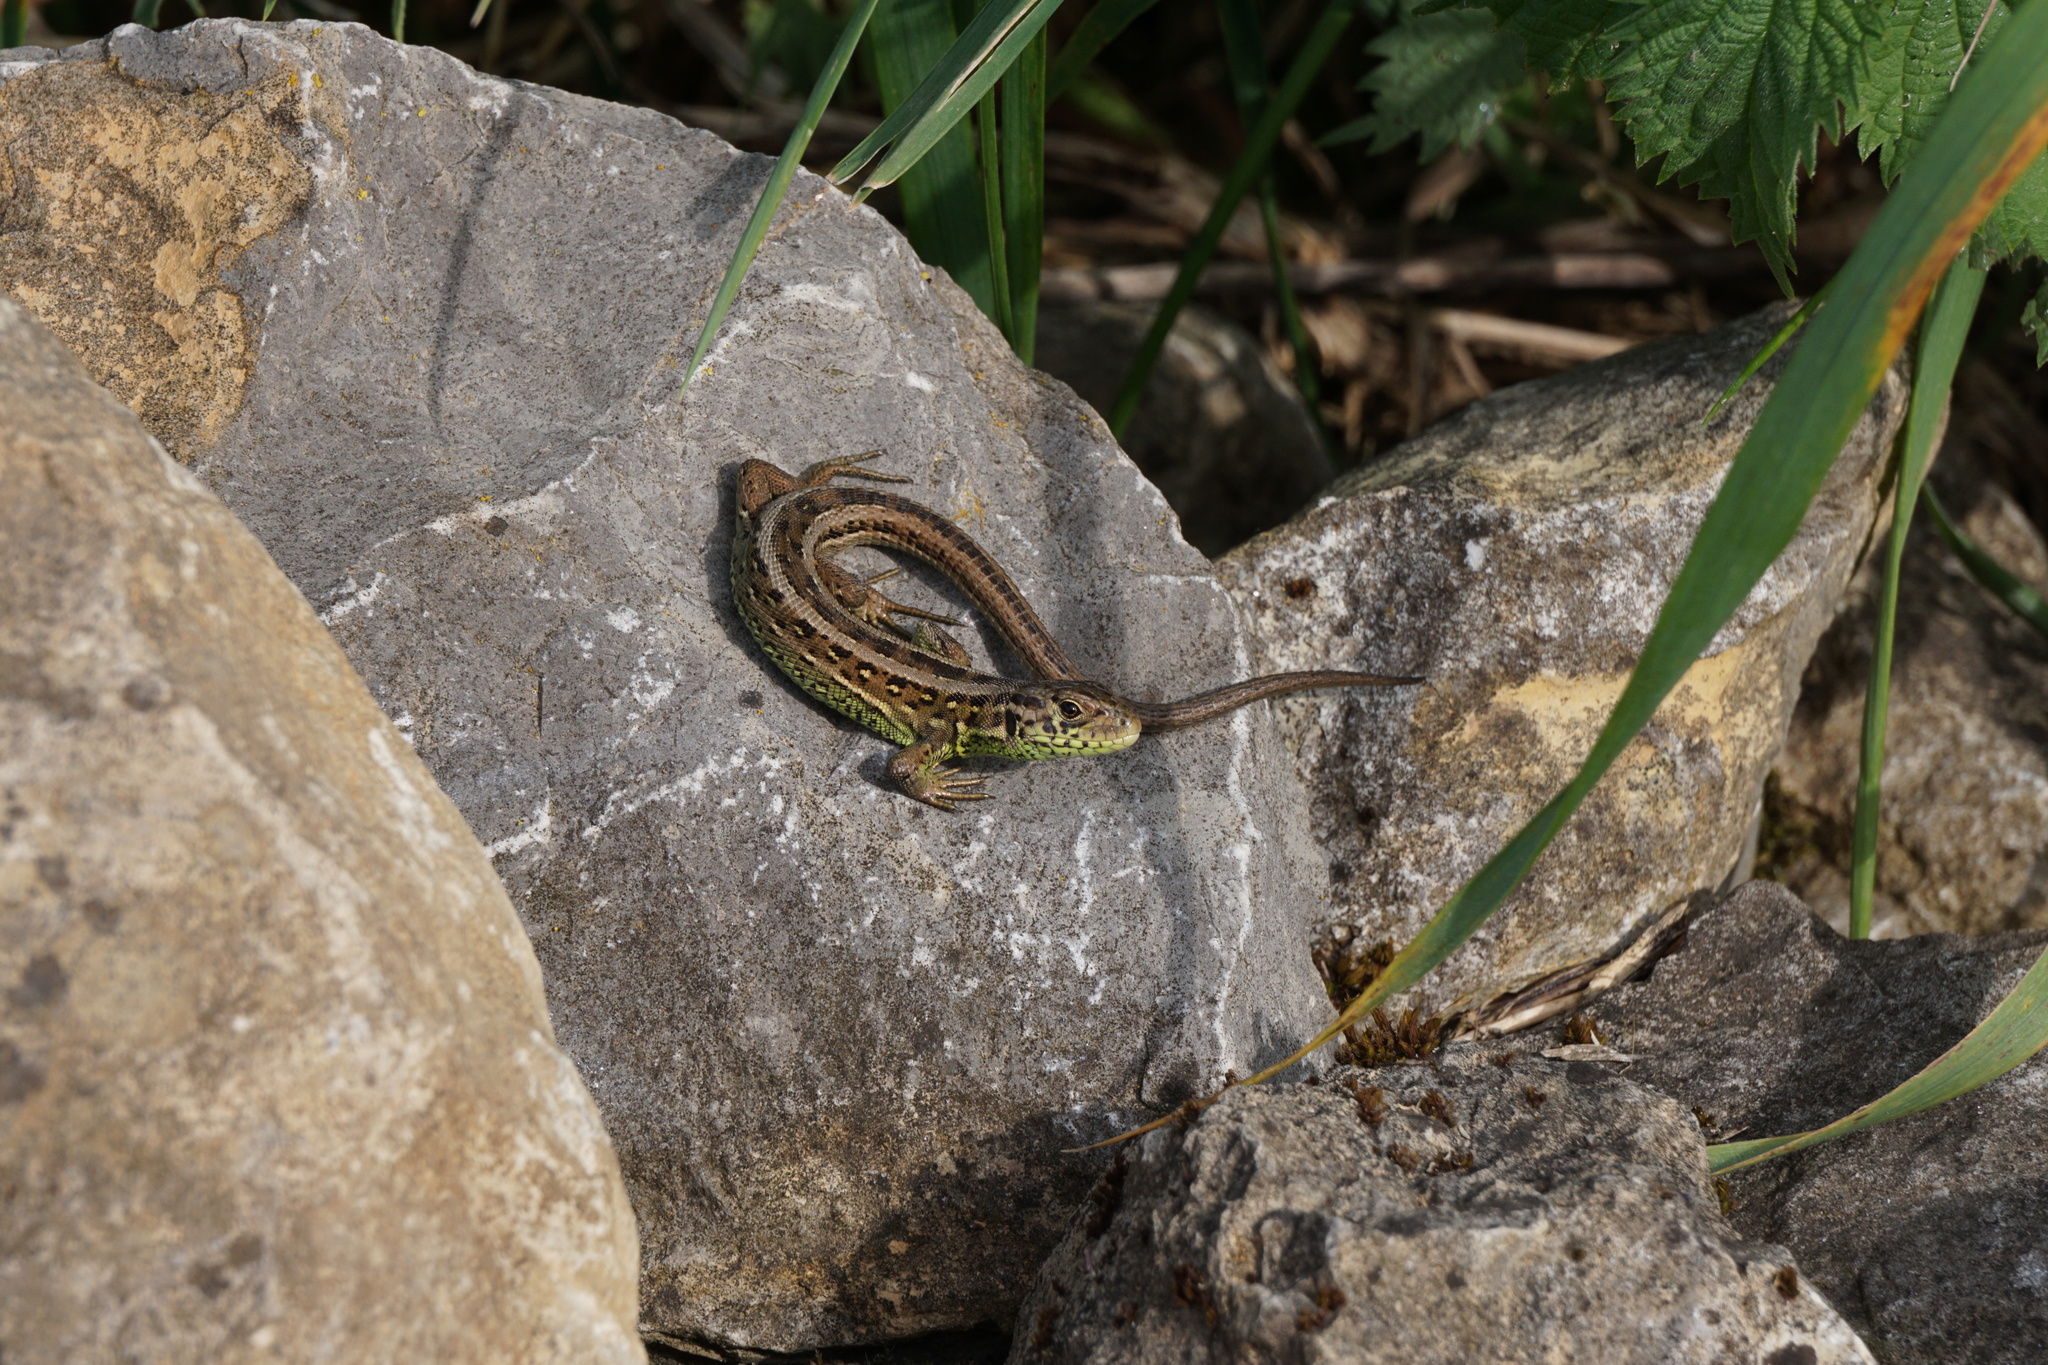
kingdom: Animalia
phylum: Chordata
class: Squamata
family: Lacertidae
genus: Lacerta
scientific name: Lacerta agilis
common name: Sand lizard
